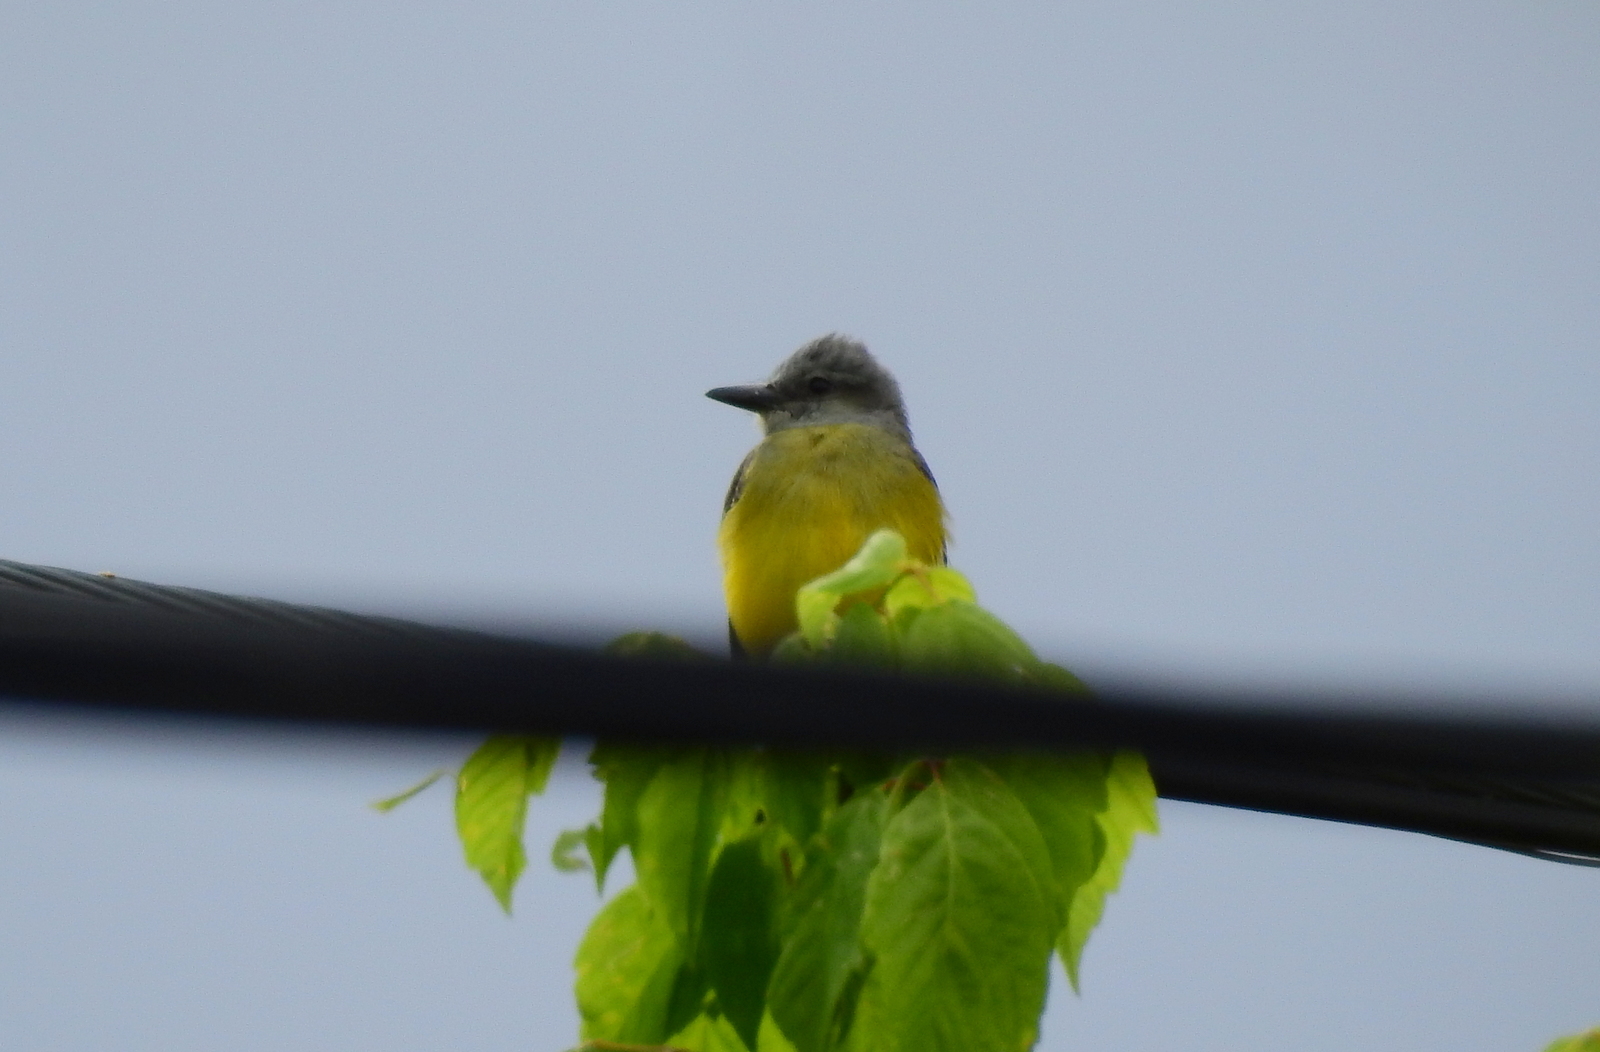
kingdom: Animalia
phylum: Chordata
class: Aves
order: Passeriformes
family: Tyrannidae
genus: Tyrannus
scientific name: Tyrannus melancholicus
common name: Tropical kingbird
